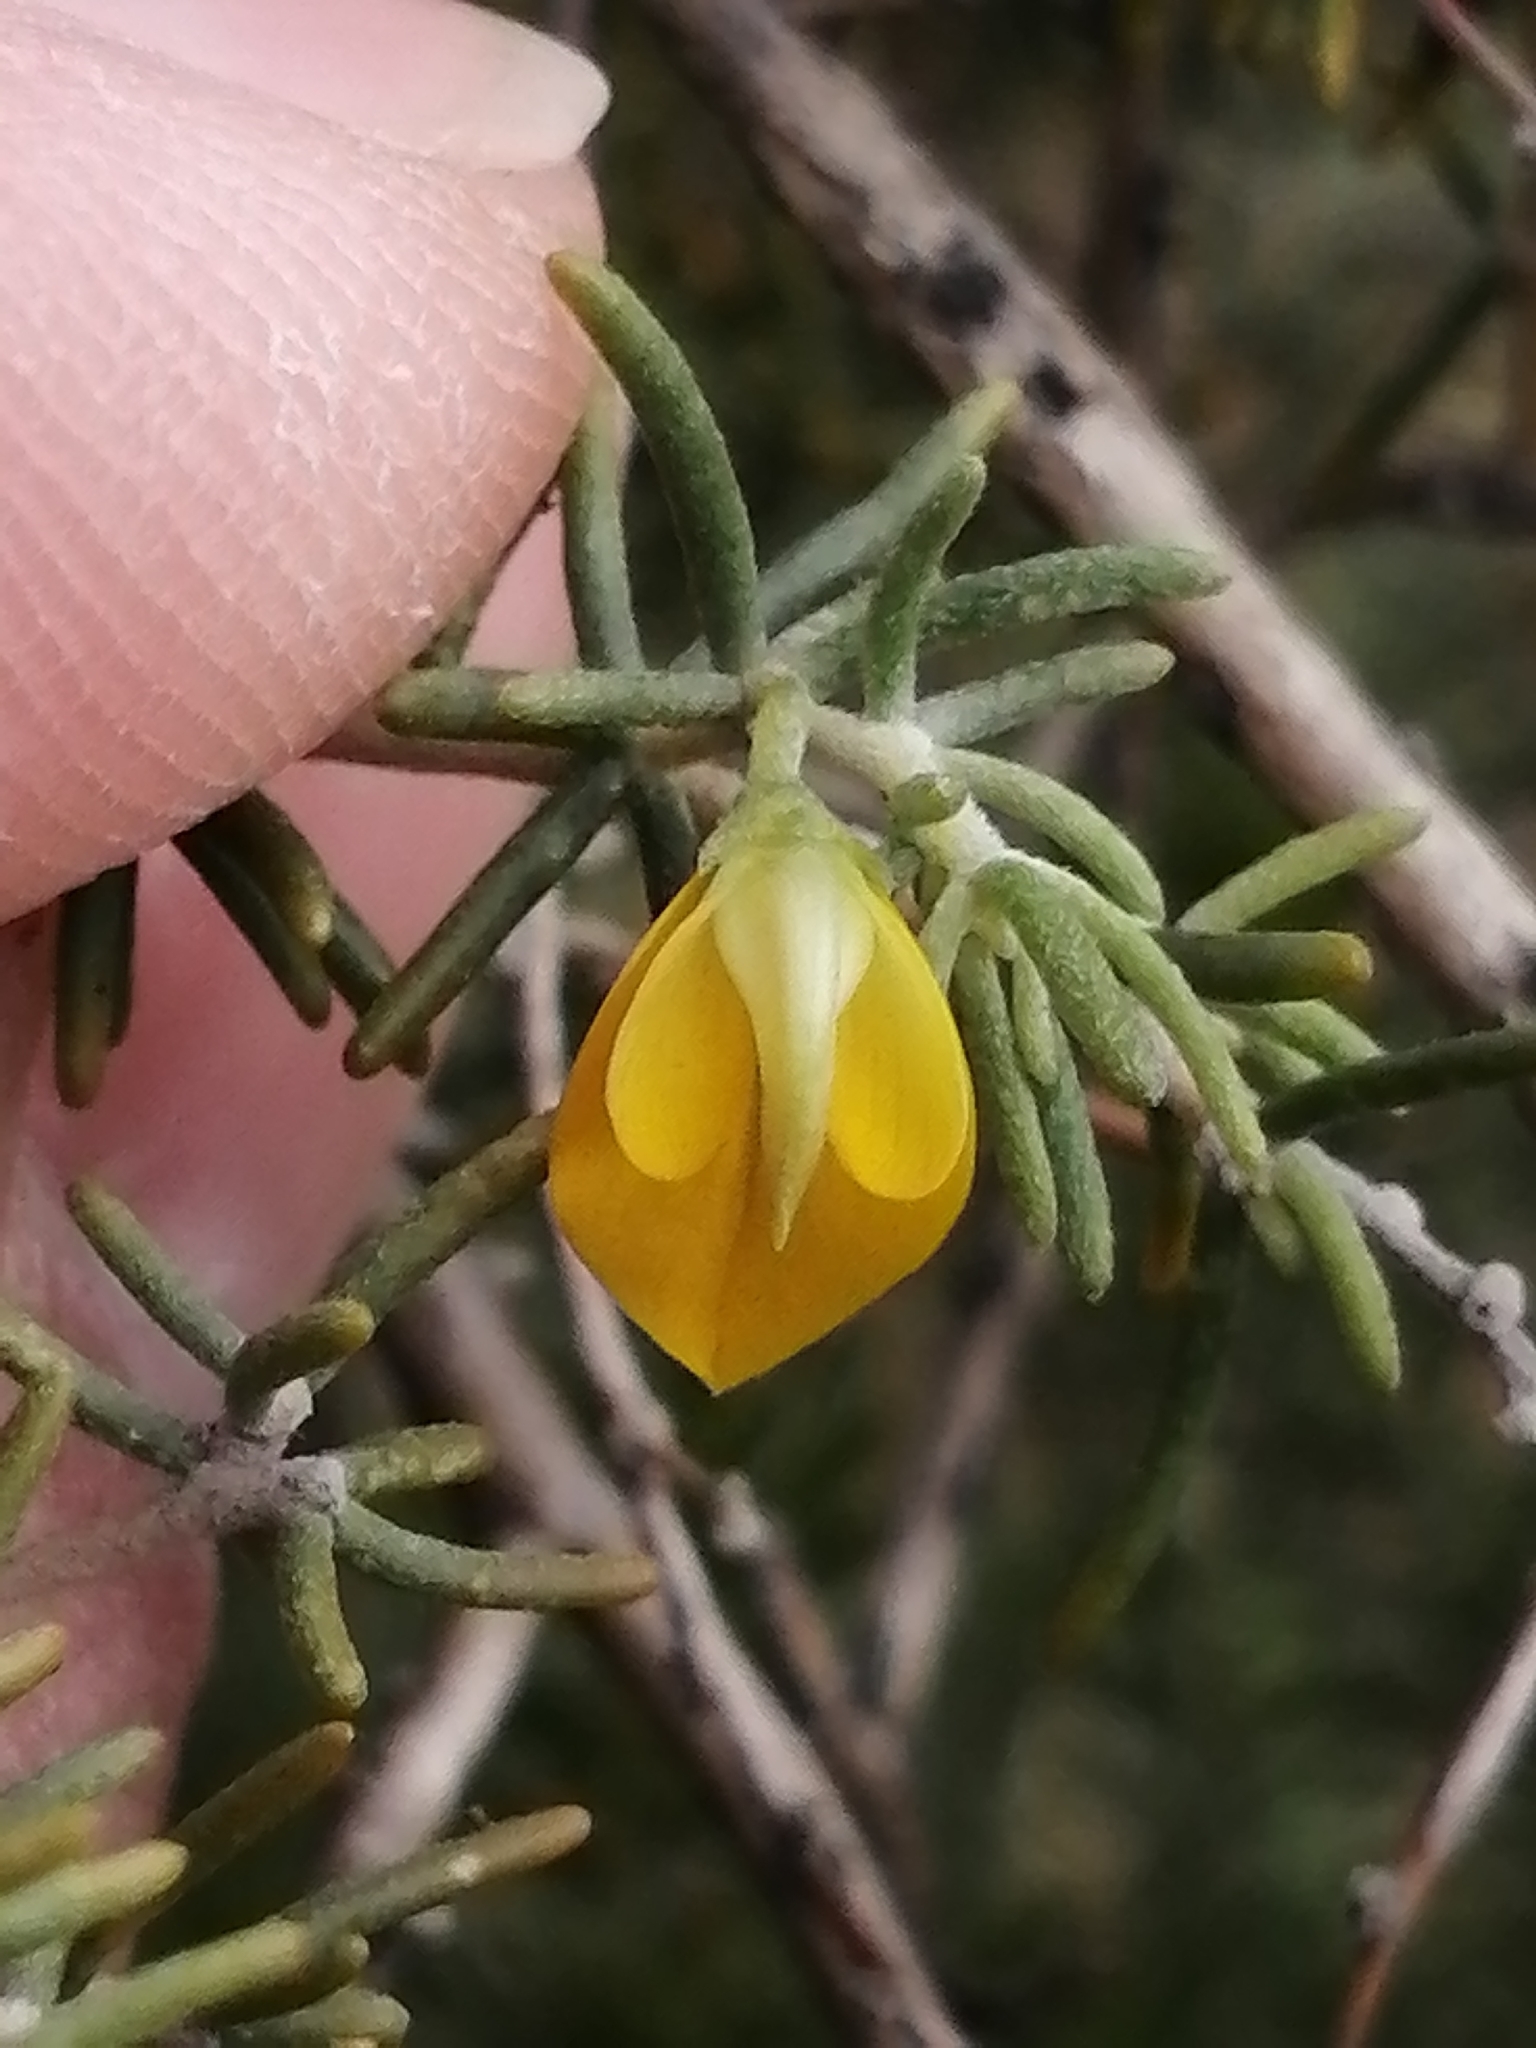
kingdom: Plantae
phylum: Tracheophyta
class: Magnoliopsida
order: Fabales
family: Fabaceae
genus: Aspalathus
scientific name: Aspalathus lactea
